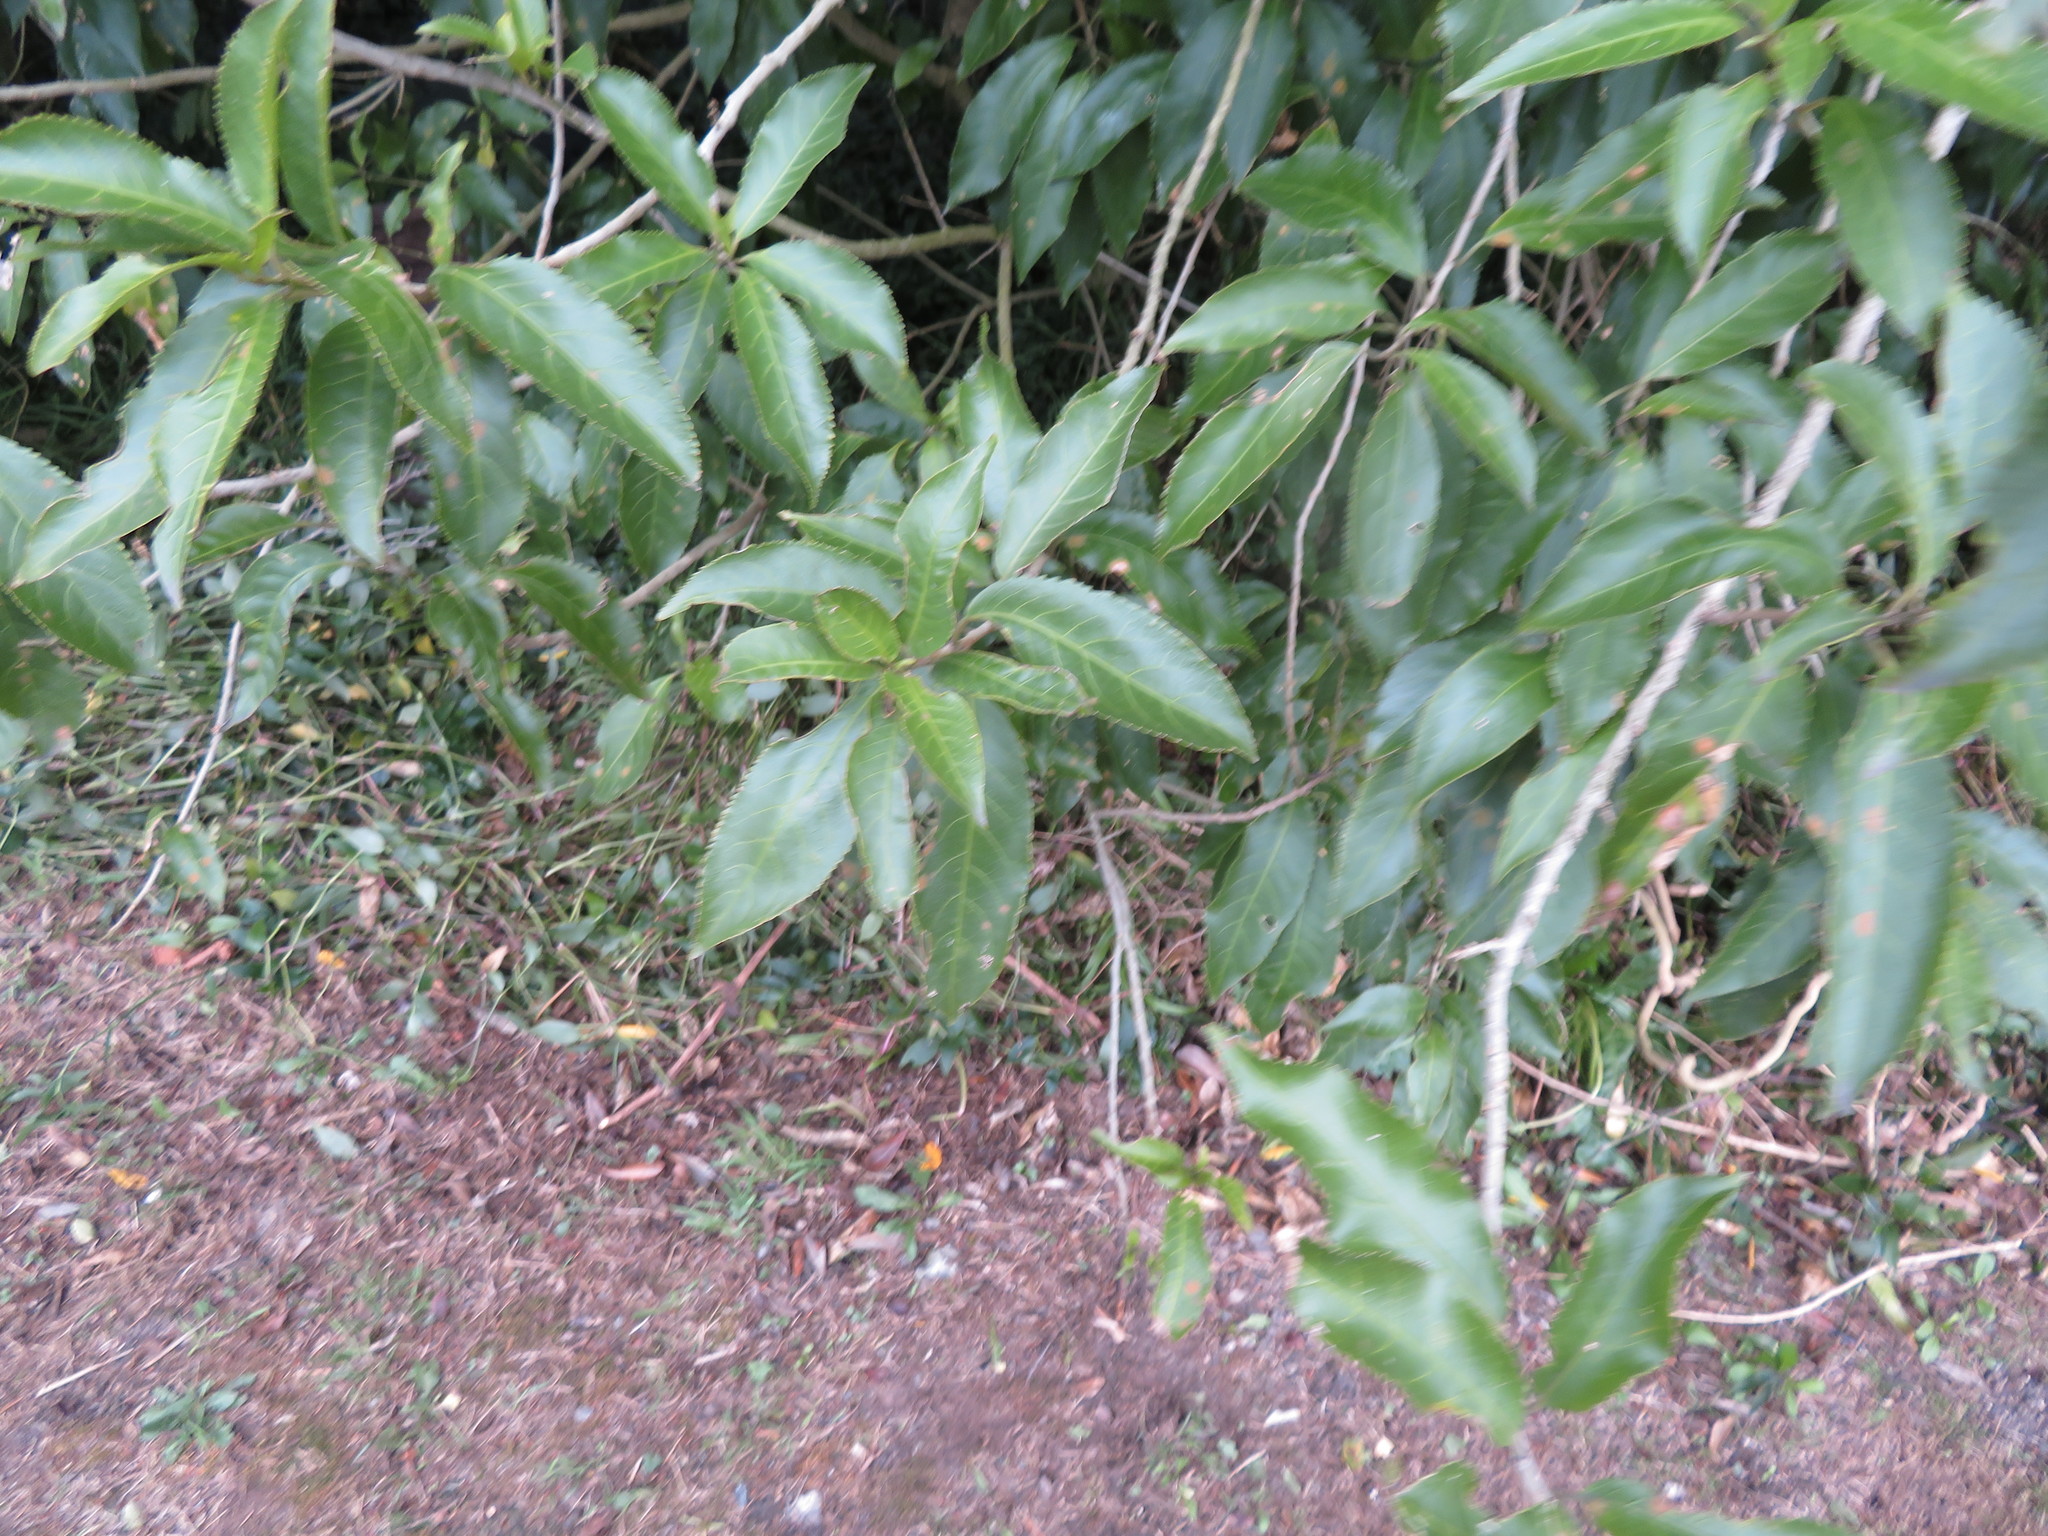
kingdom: Plantae
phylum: Tracheophyta
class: Liliopsida
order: Commelinales
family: Commelinaceae
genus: Tradescantia
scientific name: Tradescantia fluminensis
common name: Wandering-jew
